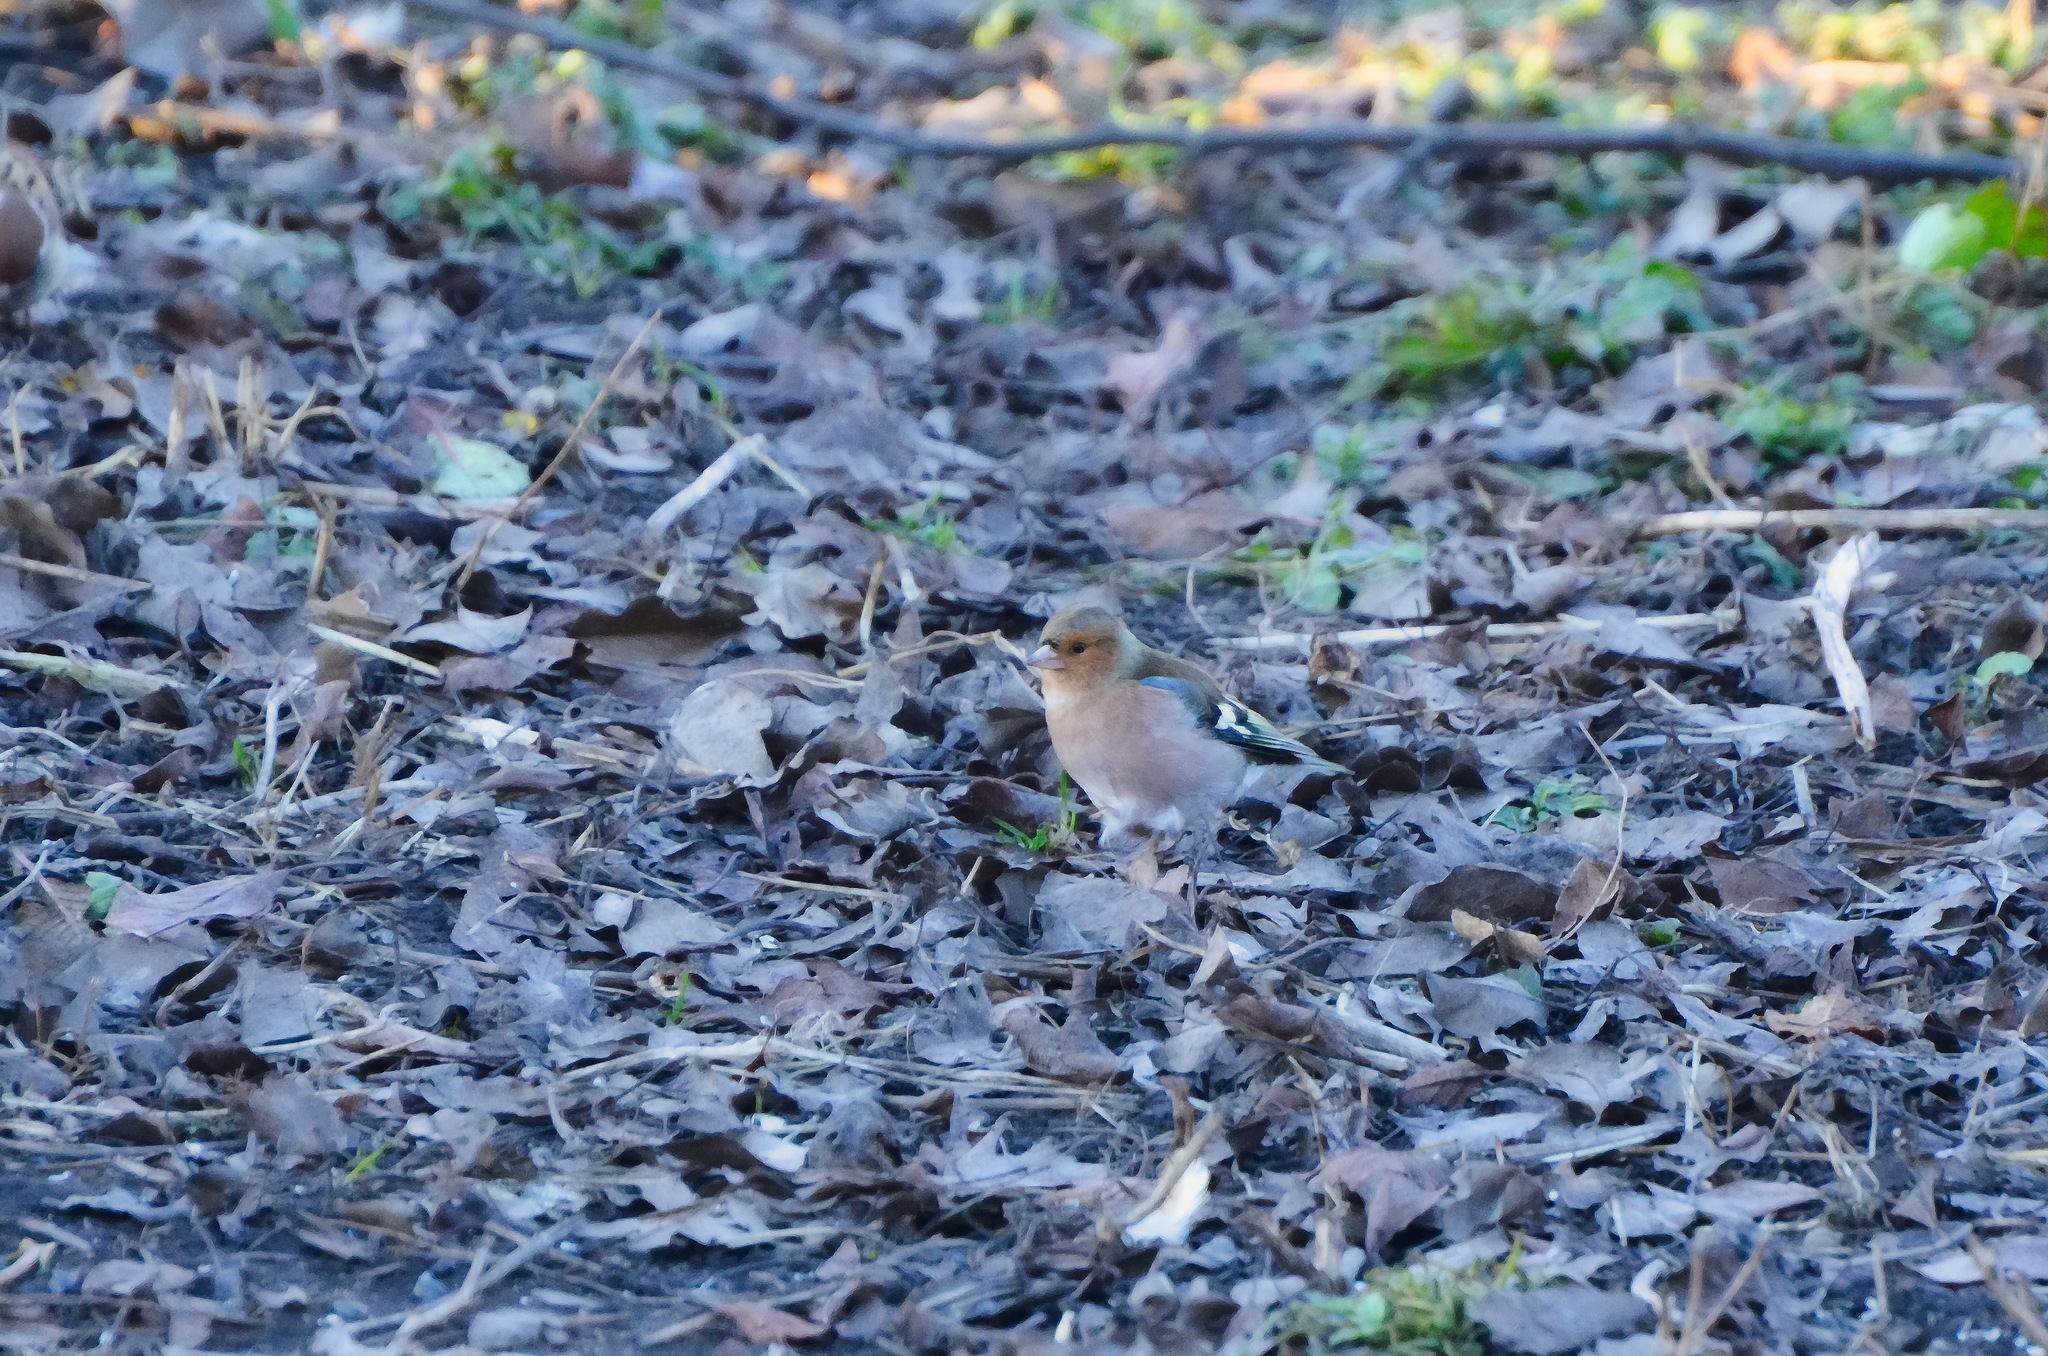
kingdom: Animalia
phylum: Chordata
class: Aves
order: Passeriformes
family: Fringillidae
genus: Fringilla
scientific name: Fringilla coelebs
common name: Common chaffinch
